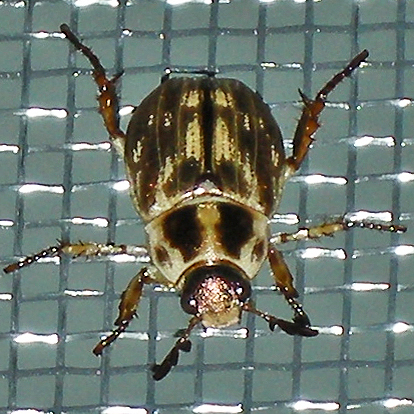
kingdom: Animalia
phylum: Arthropoda
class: Insecta
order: Coleoptera
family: Scarabaeidae
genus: Exomala
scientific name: Exomala orientalis
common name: Oriental beetle
